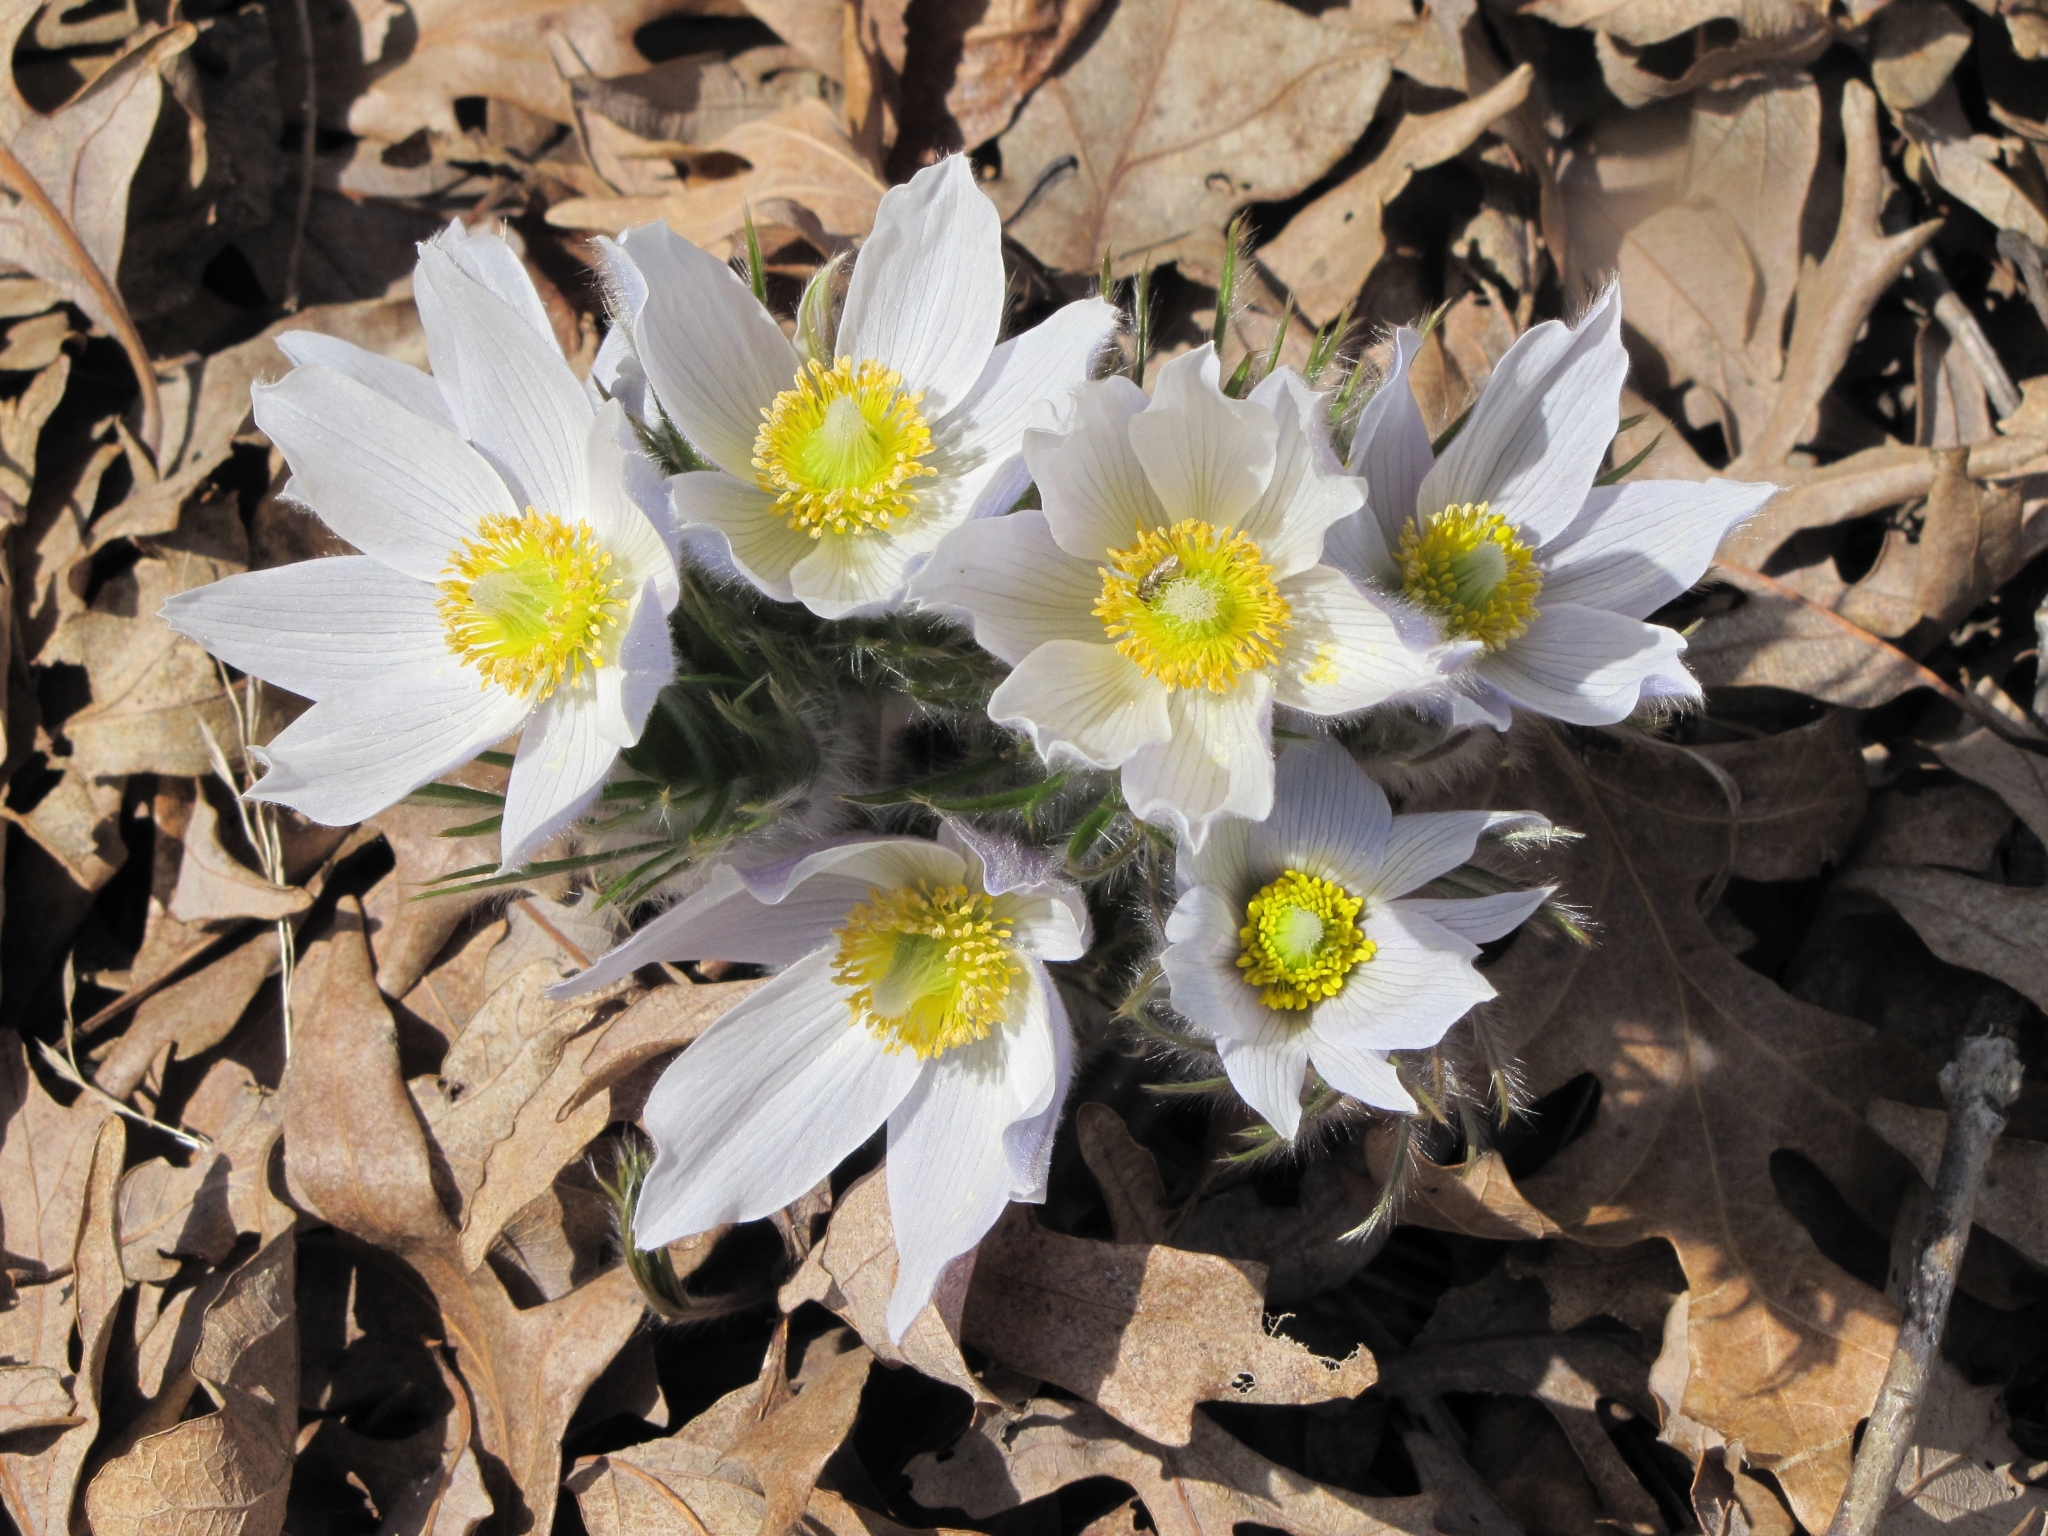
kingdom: Plantae
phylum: Tracheophyta
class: Magnoliopsida
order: Ranunculales
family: Ranunculaceae
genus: Pulsatilla
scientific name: Pulsatilla nuttalliana
